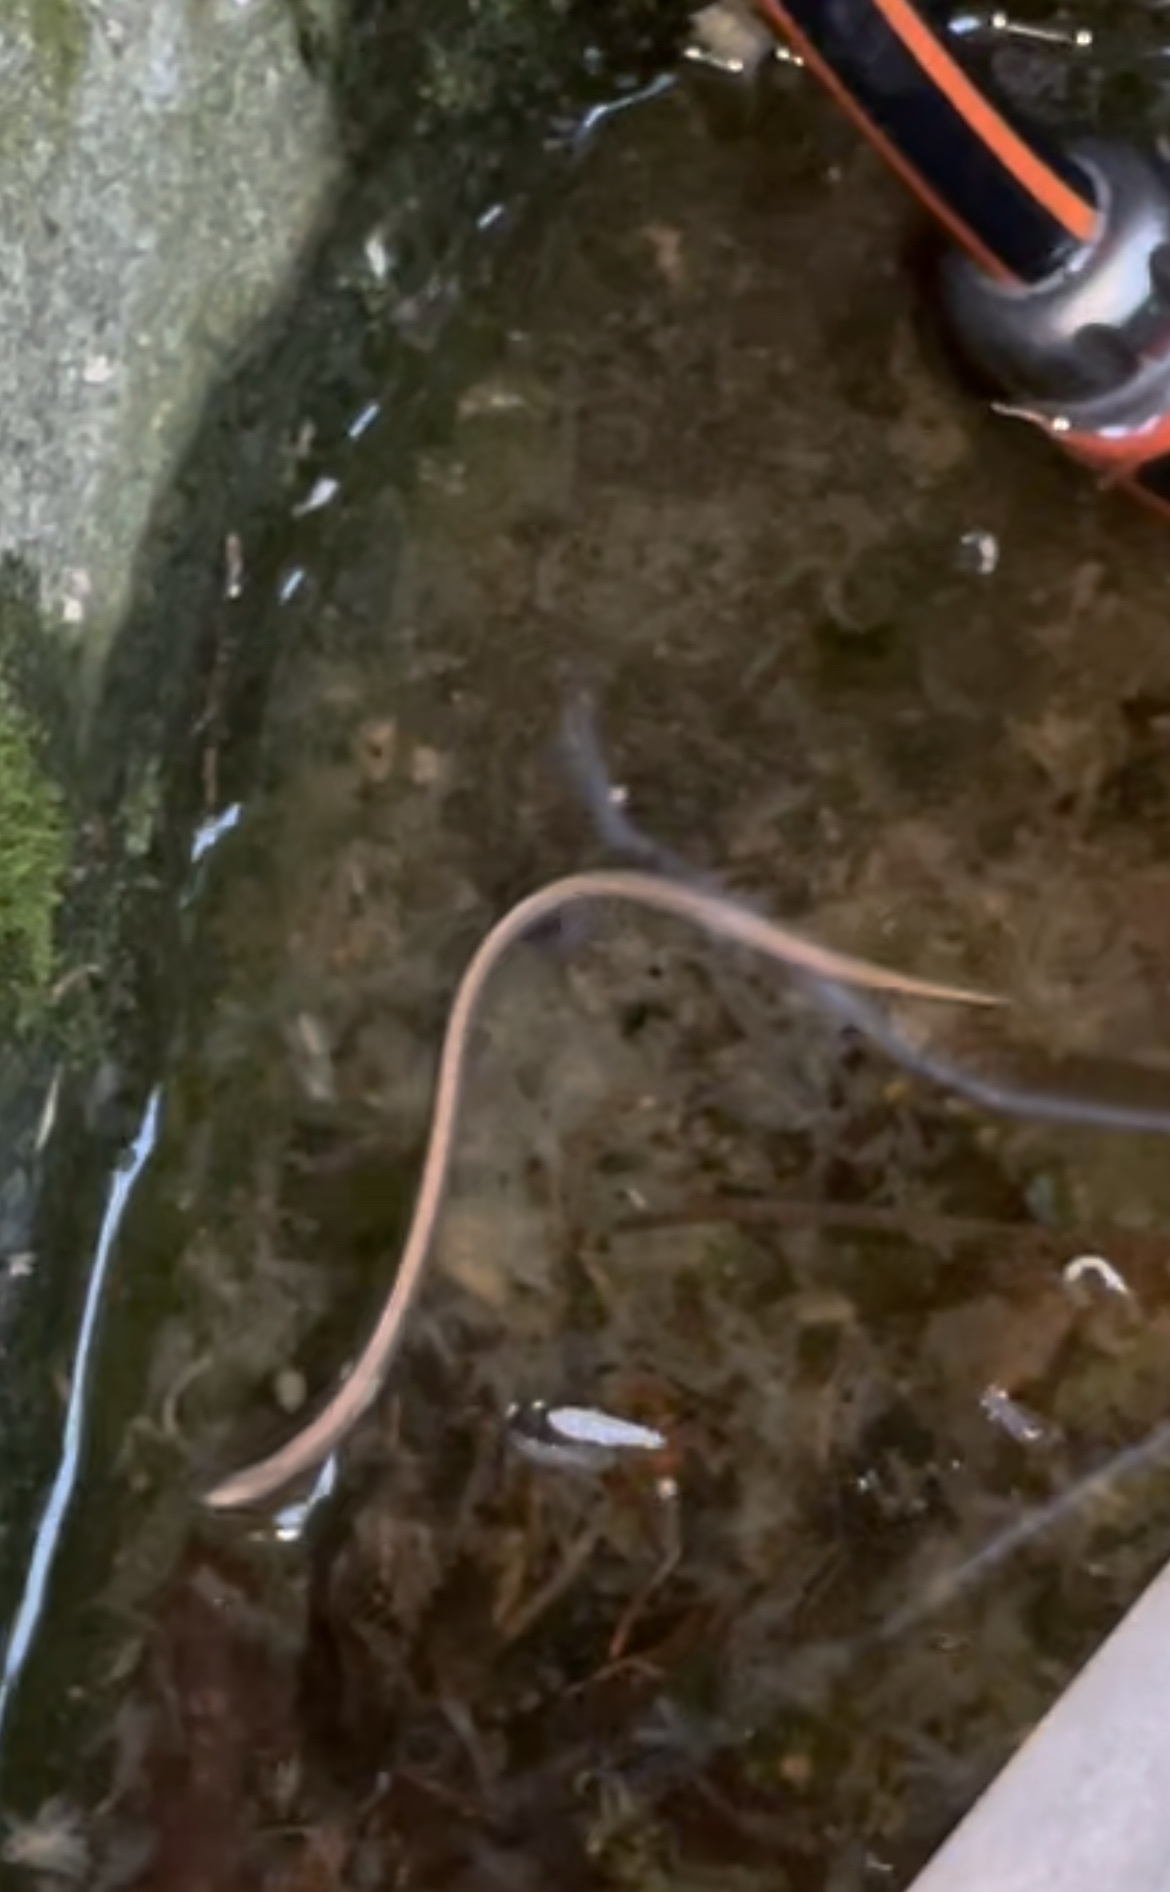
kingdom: Animalia
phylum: Chordata
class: Squamata
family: Anguidae
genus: Anguis
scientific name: Anguis fragilis
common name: Slow worm
